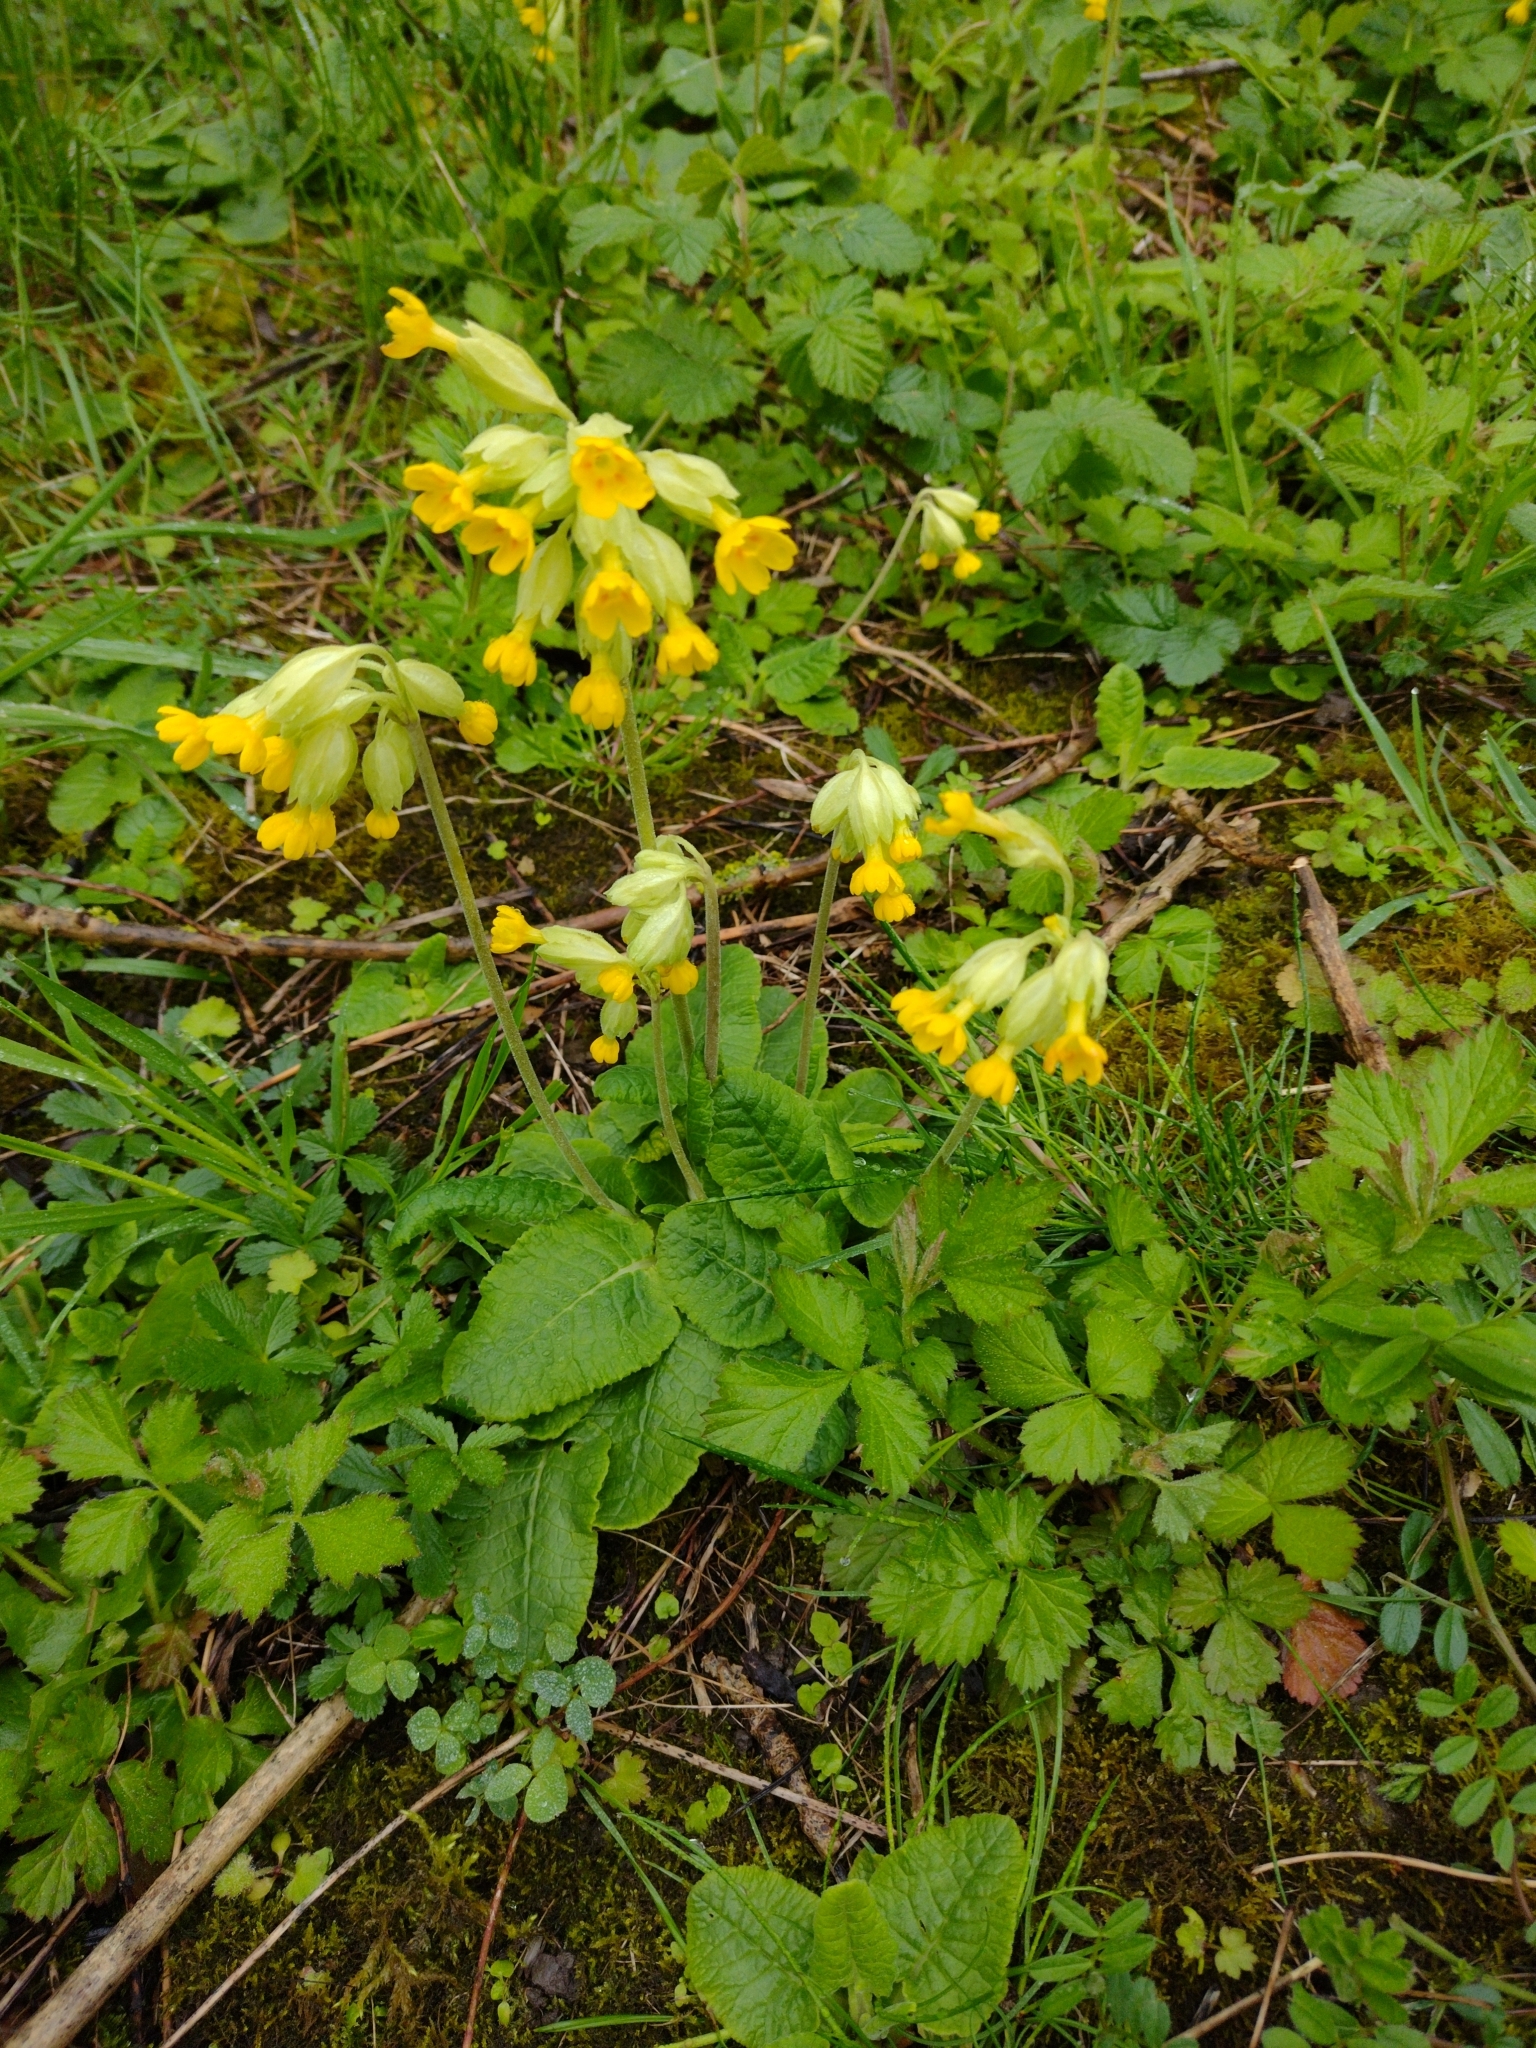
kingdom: Plantae
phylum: Tracheophyta
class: Magnoliopsida
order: Ericales
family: Primulaceae
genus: Primula
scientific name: Primula veris
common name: Cowslip
